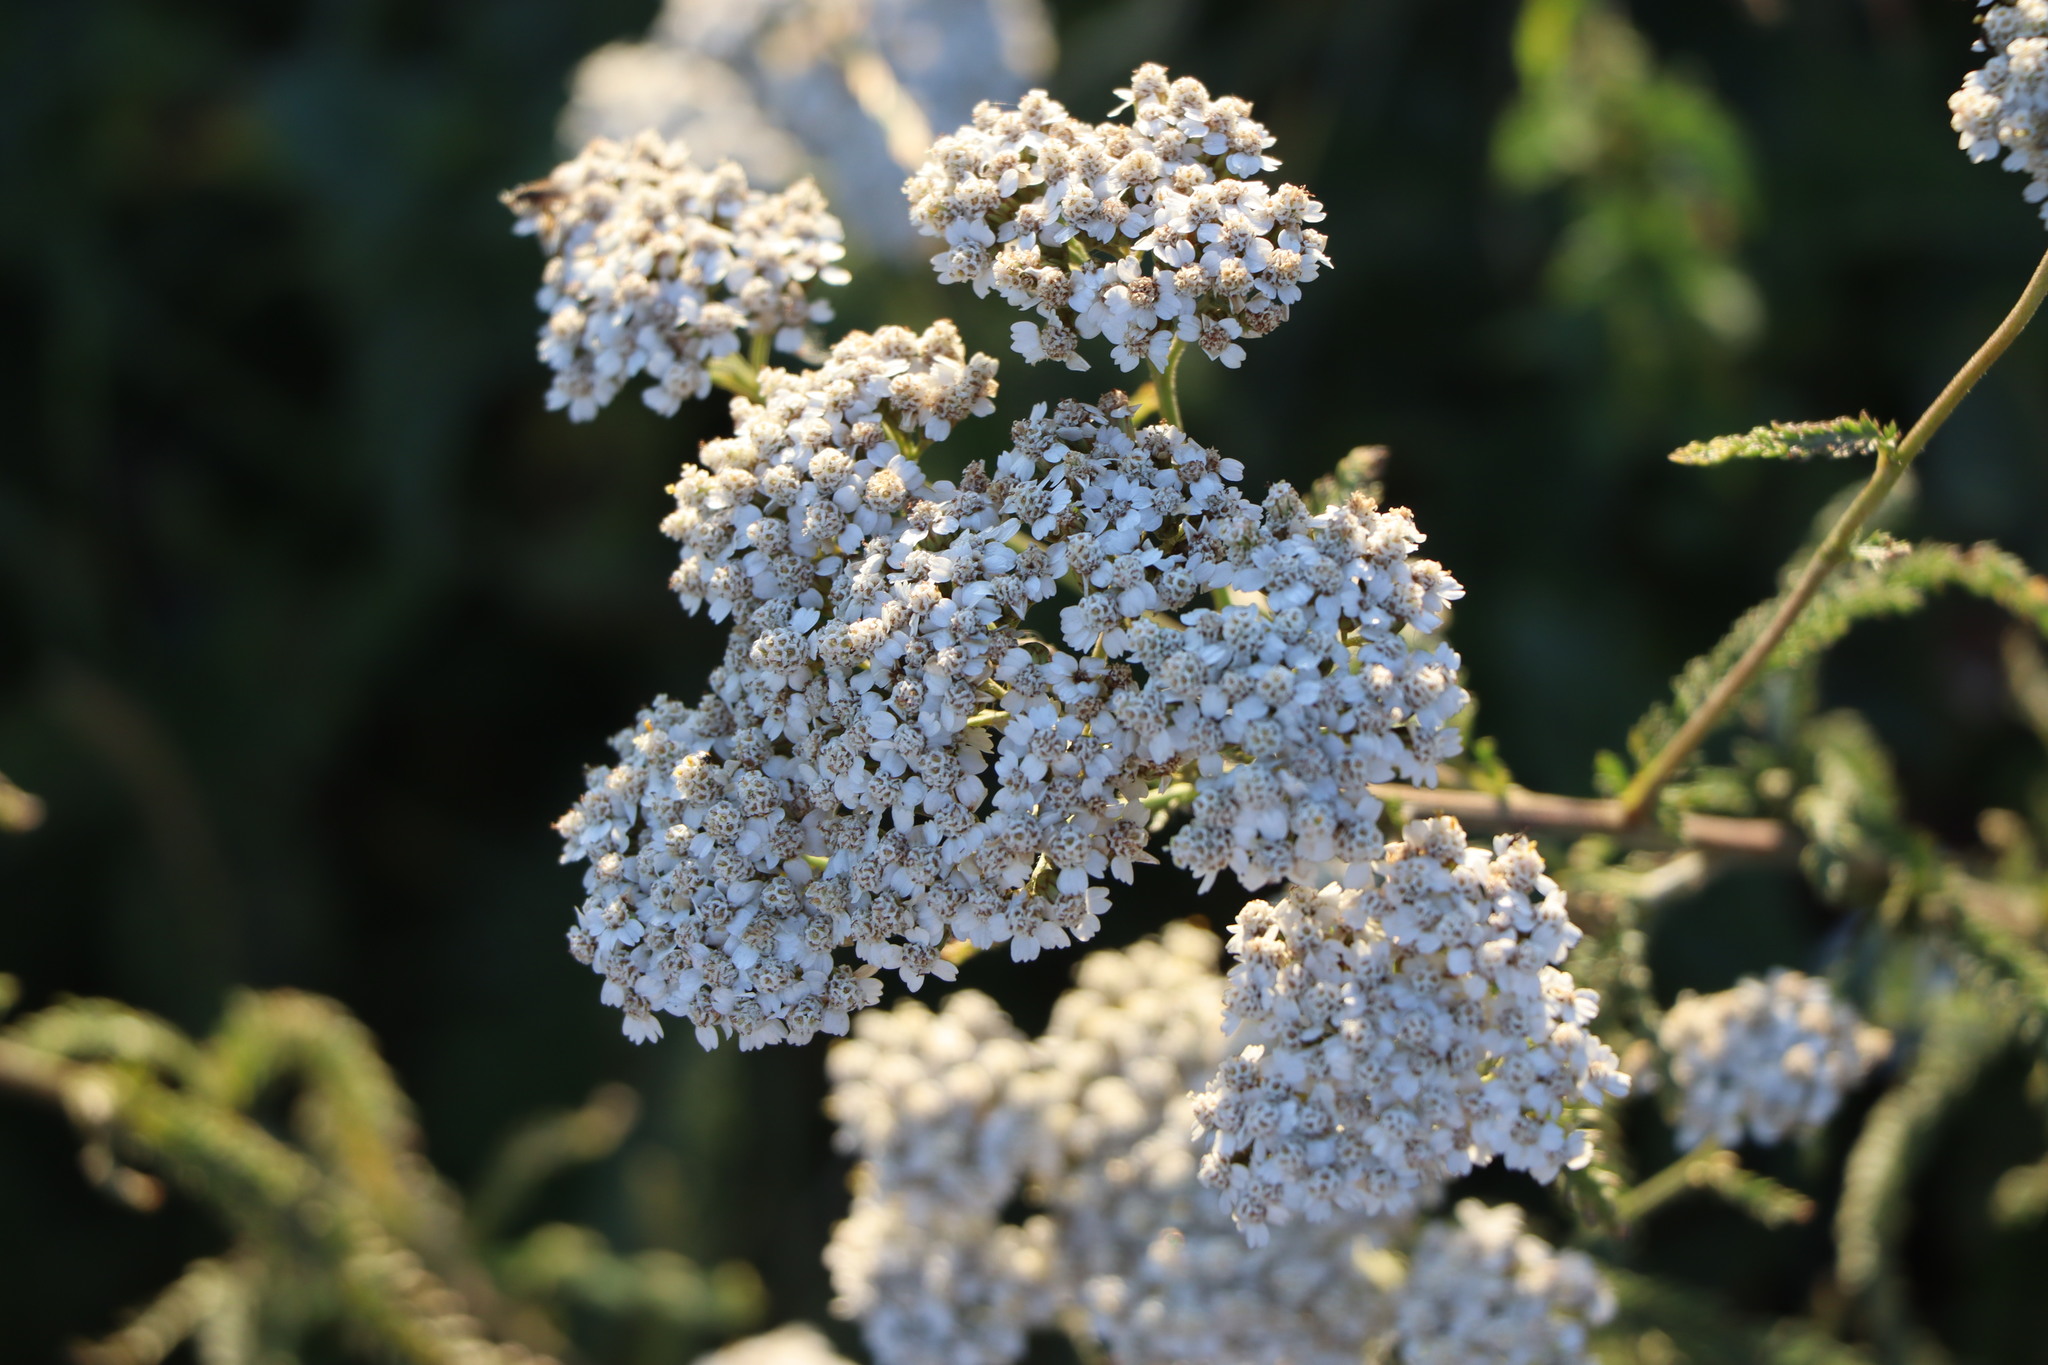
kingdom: Plantae
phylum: Tracheophyta
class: Magnoliopsida
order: Asterales
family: Asteraceae
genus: Achillea
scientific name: Achillea millefolium
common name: Yarrow
